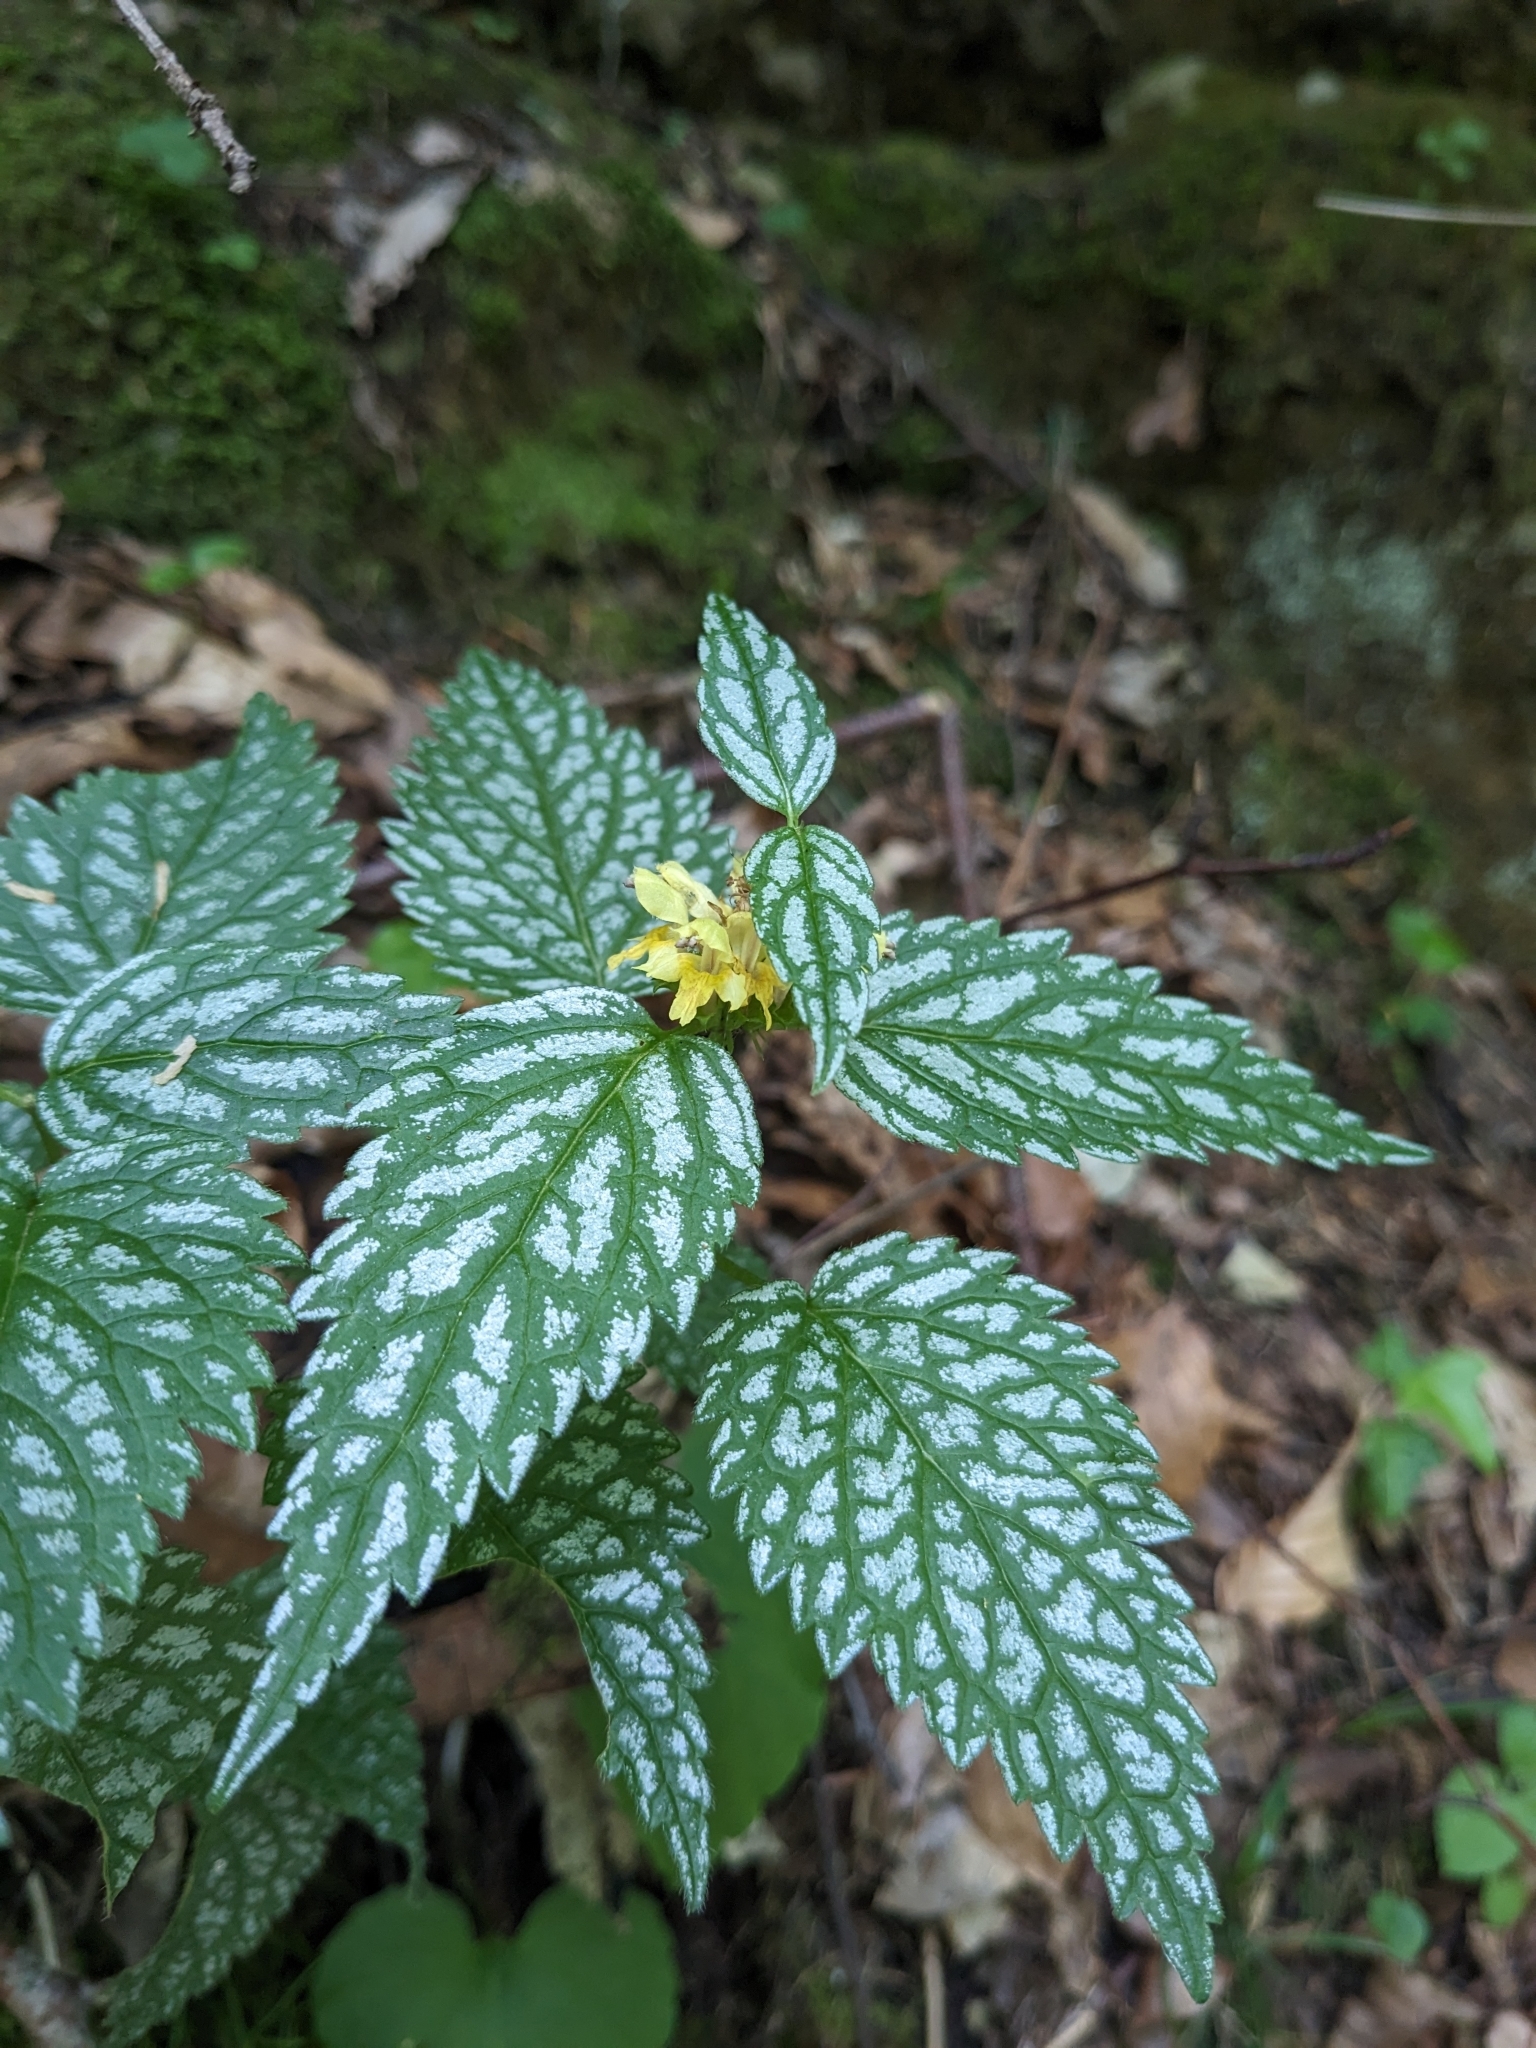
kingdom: Plantae
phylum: Tracheophyta
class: Magnoliopsida
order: Lamiales
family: Lamiaceae
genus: Lamium
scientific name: Lamium galeobdolon
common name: Yellow archangel
